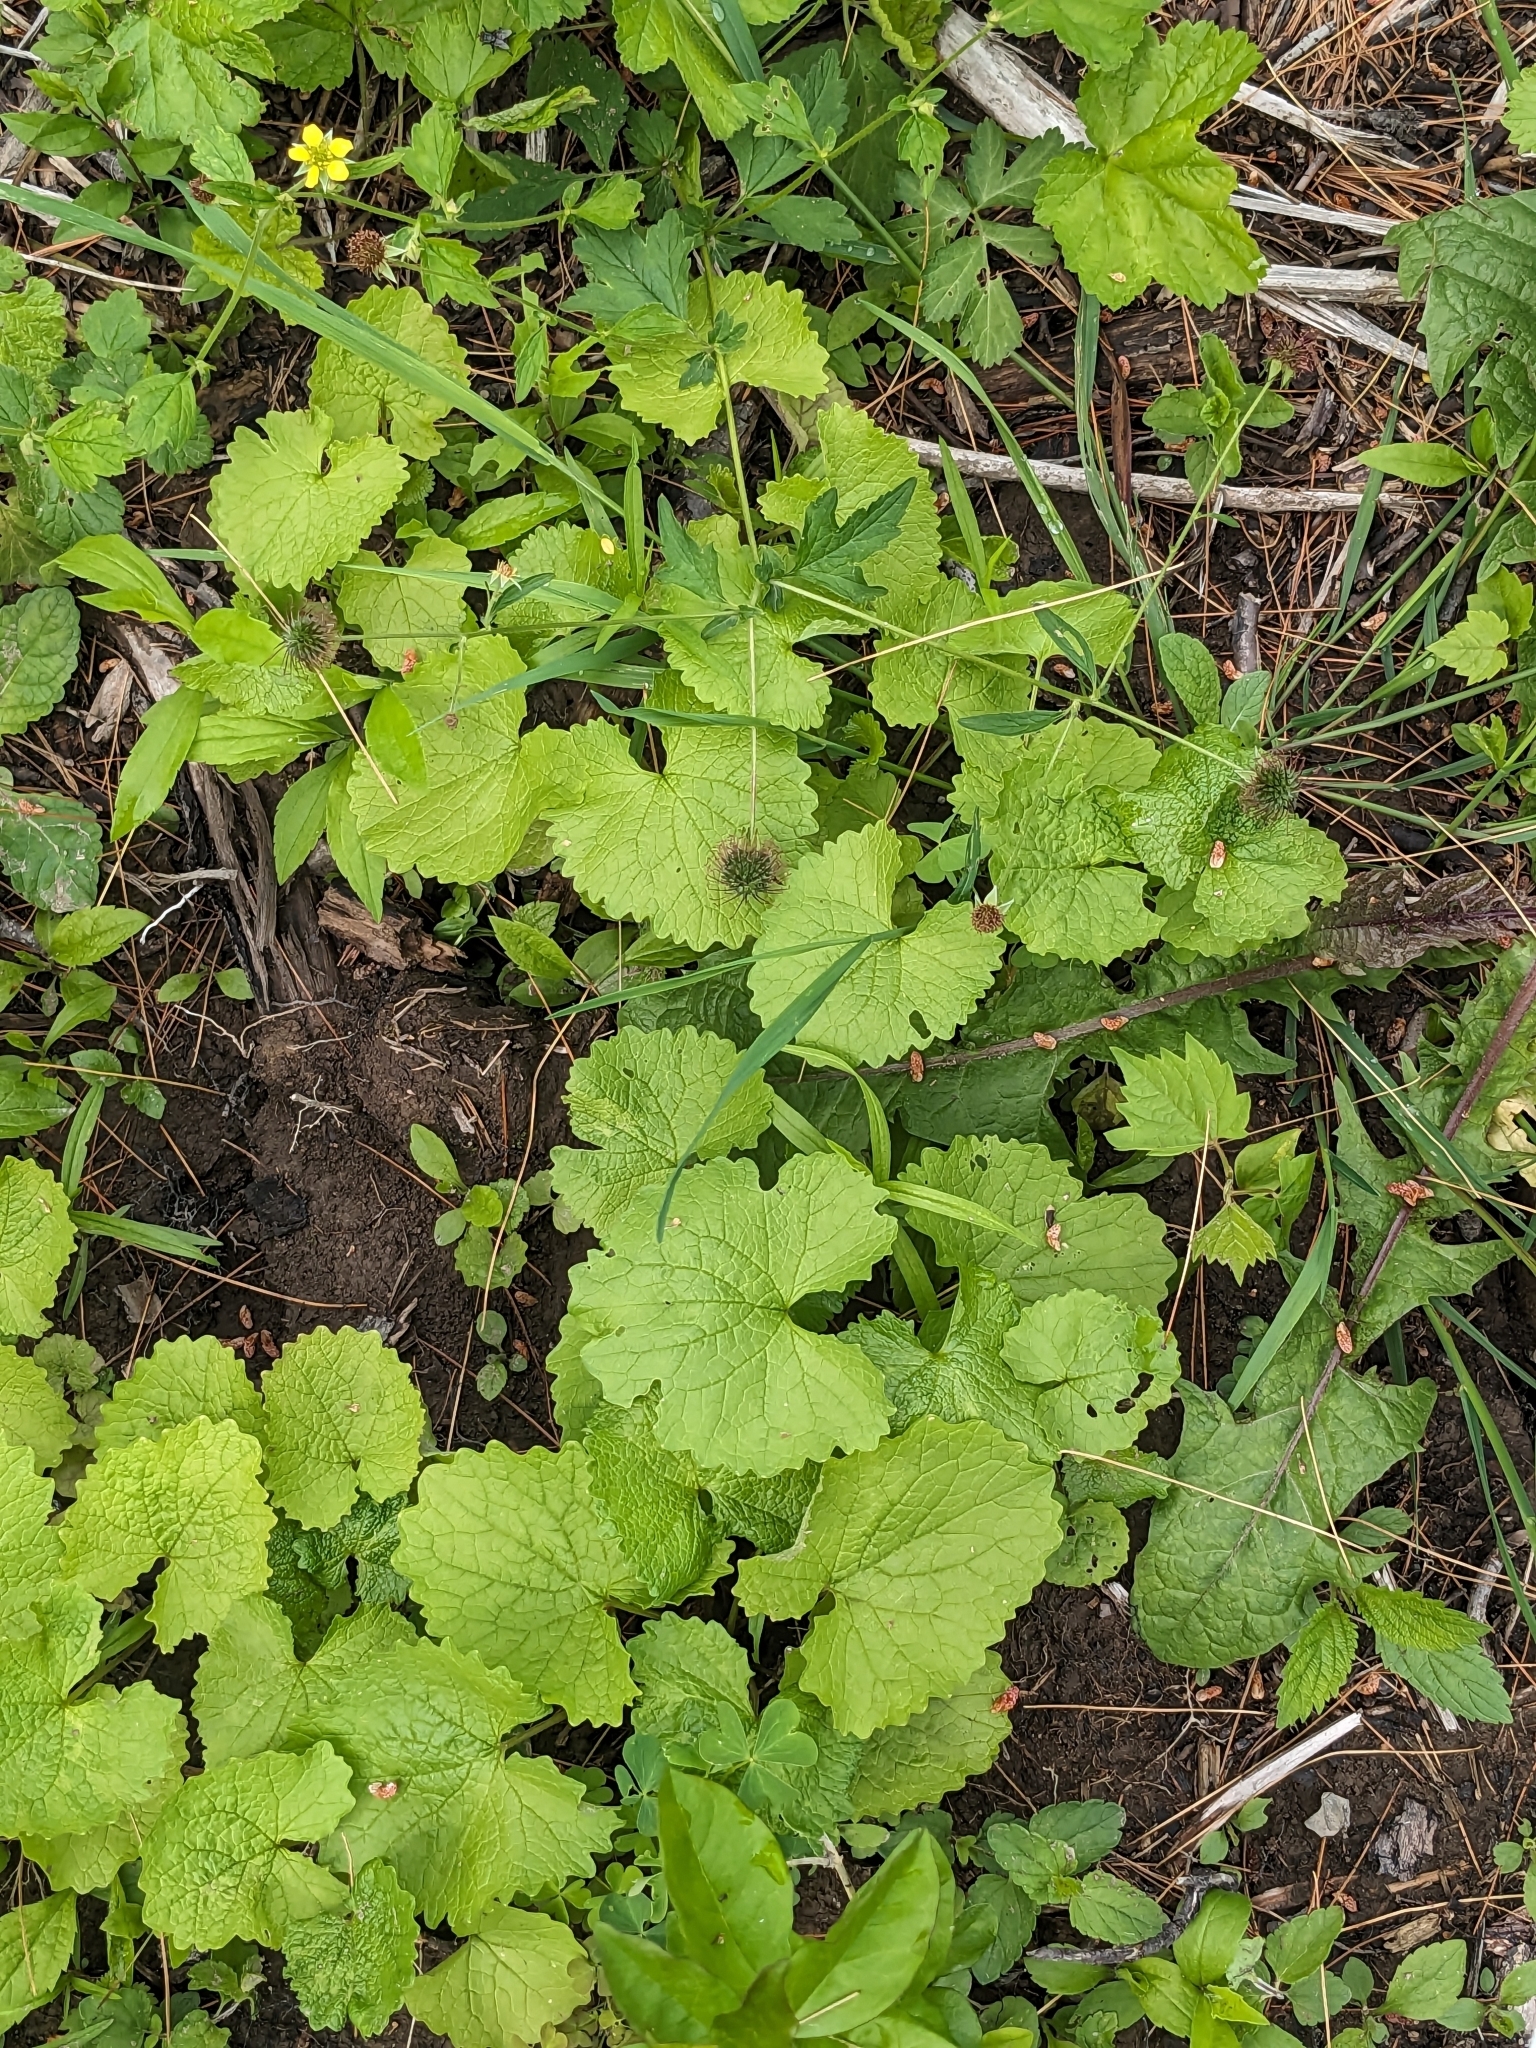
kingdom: Plantae
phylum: Tracheophyta
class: Magnoliopsida
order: Brassicales
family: Brassicaceae
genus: Alliaria
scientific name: Alliaria petiolata
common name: Garlic mustard
